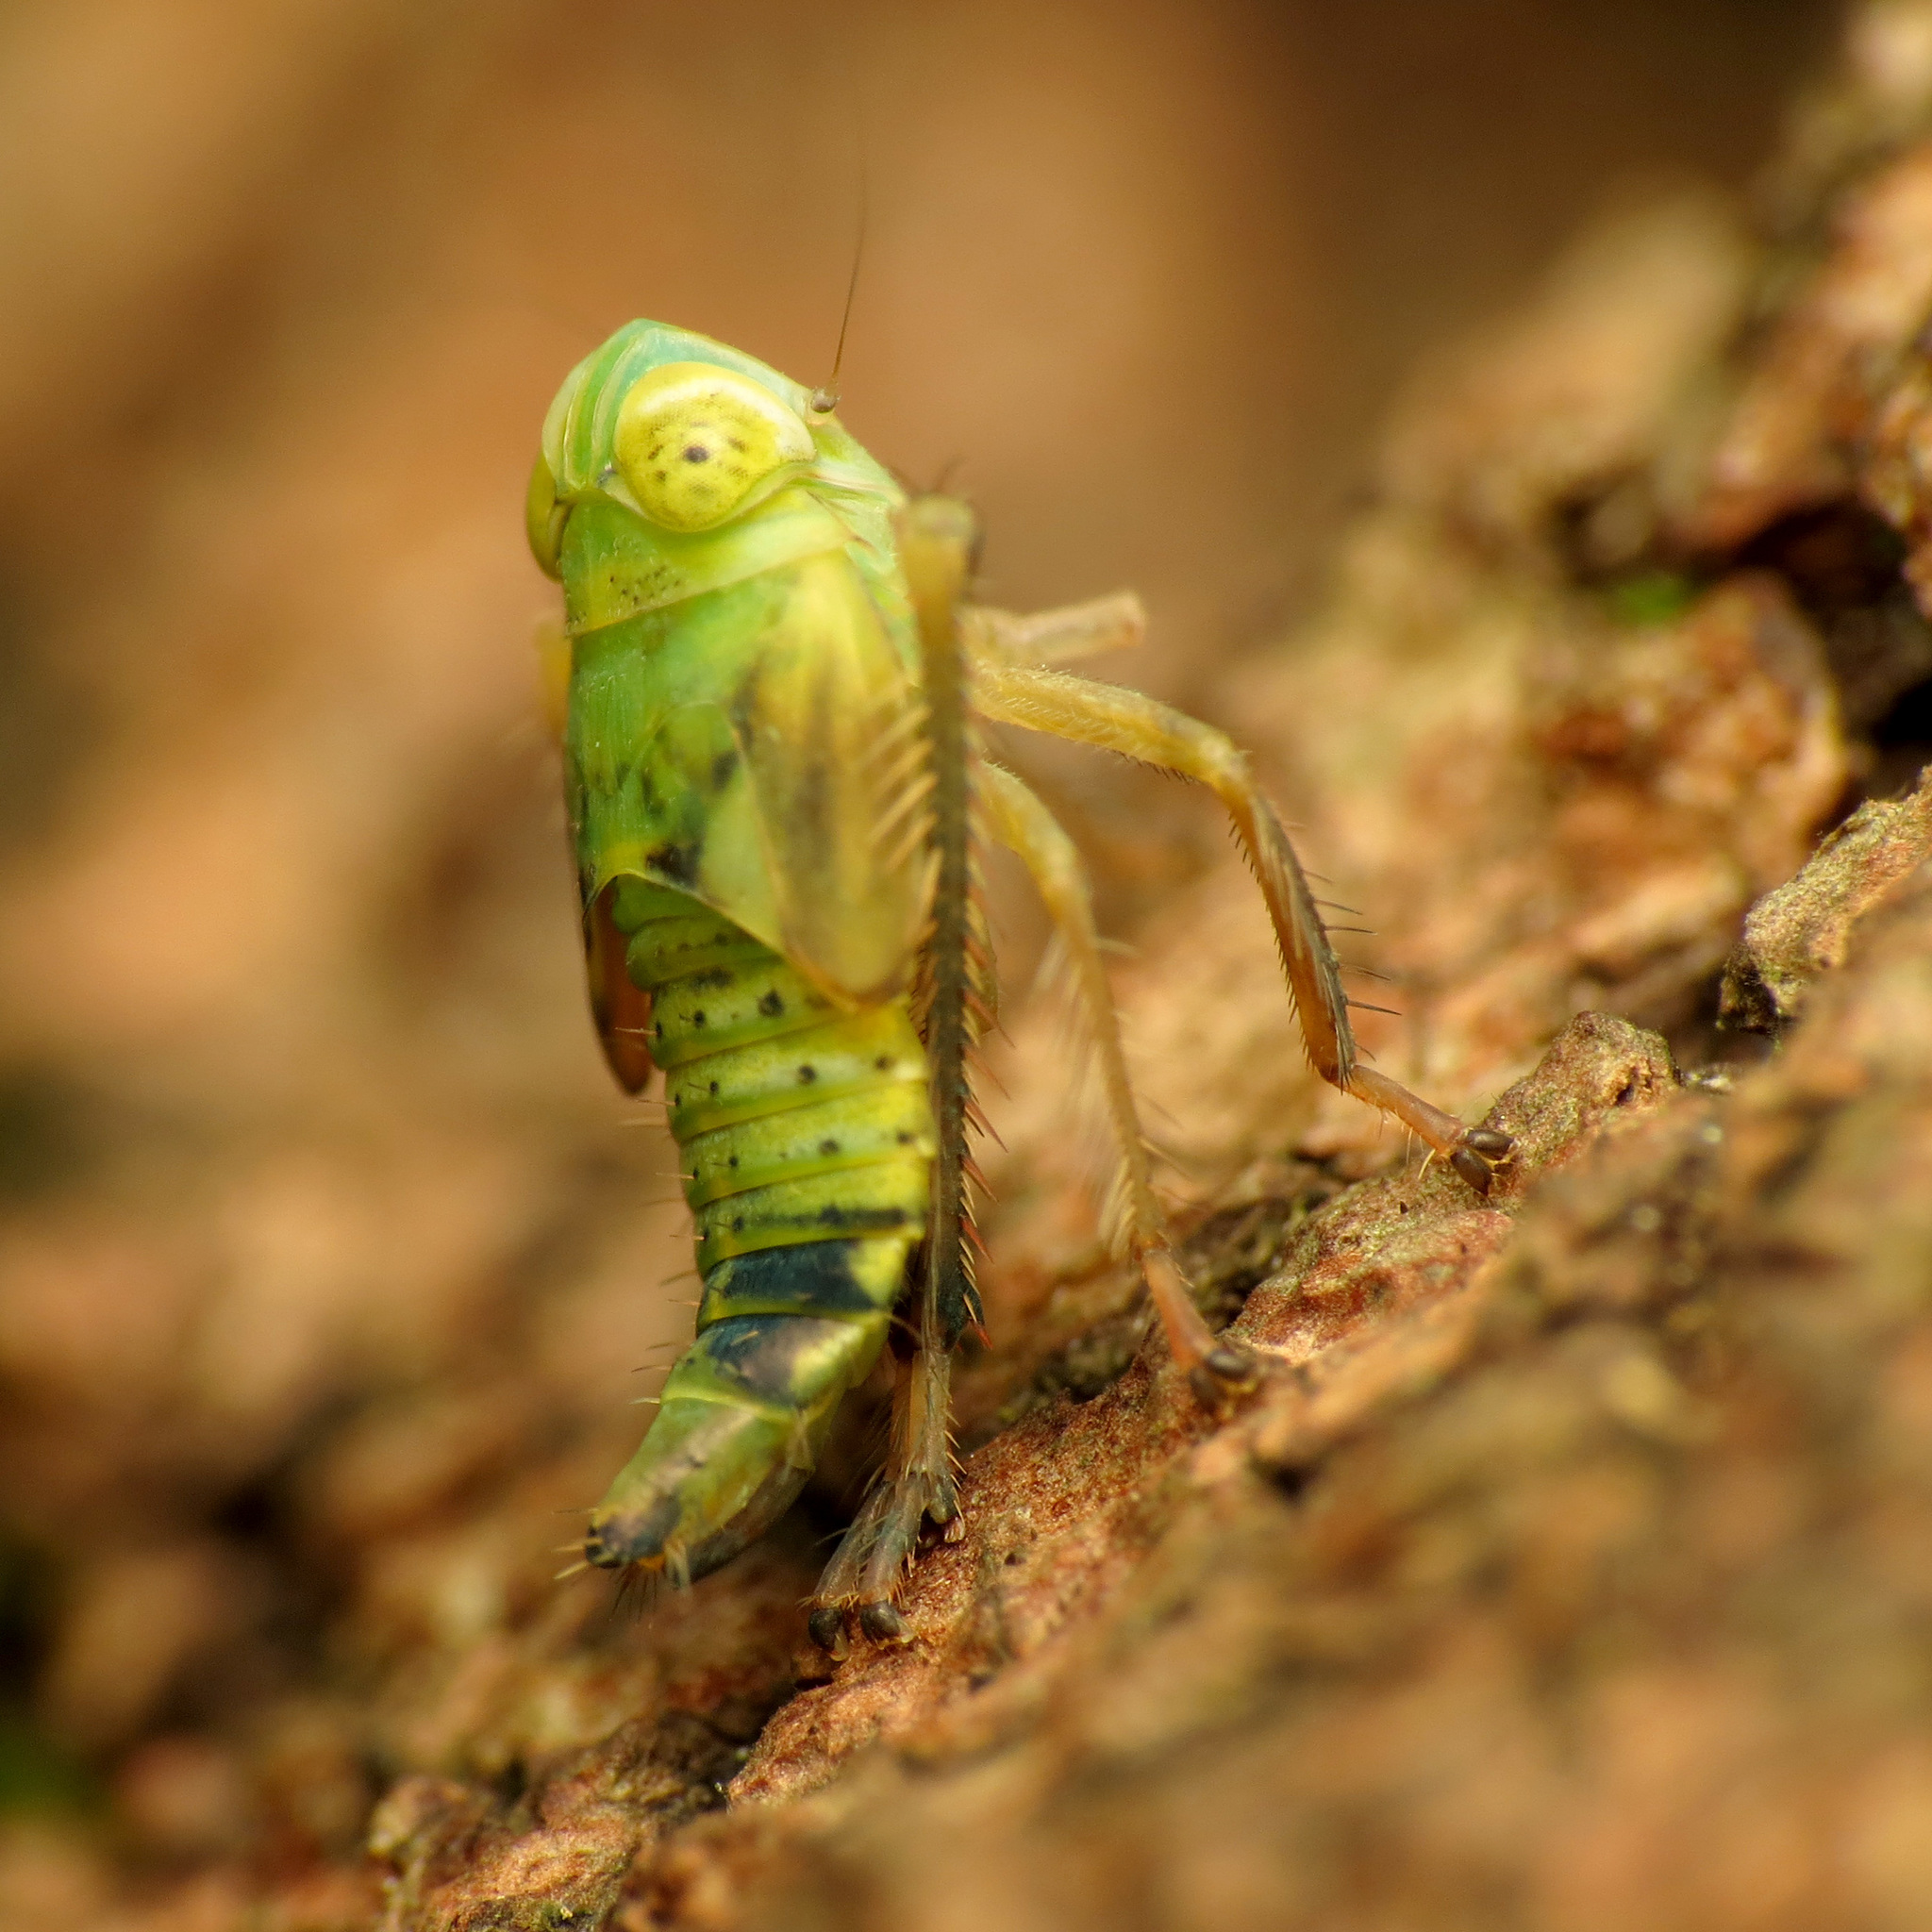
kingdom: Animalia
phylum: Arthropoda
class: Insecta
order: Hemiptera
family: Cicadellidae
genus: Jikradia
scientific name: Jikradia olitoria
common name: Coppery leafhopper
